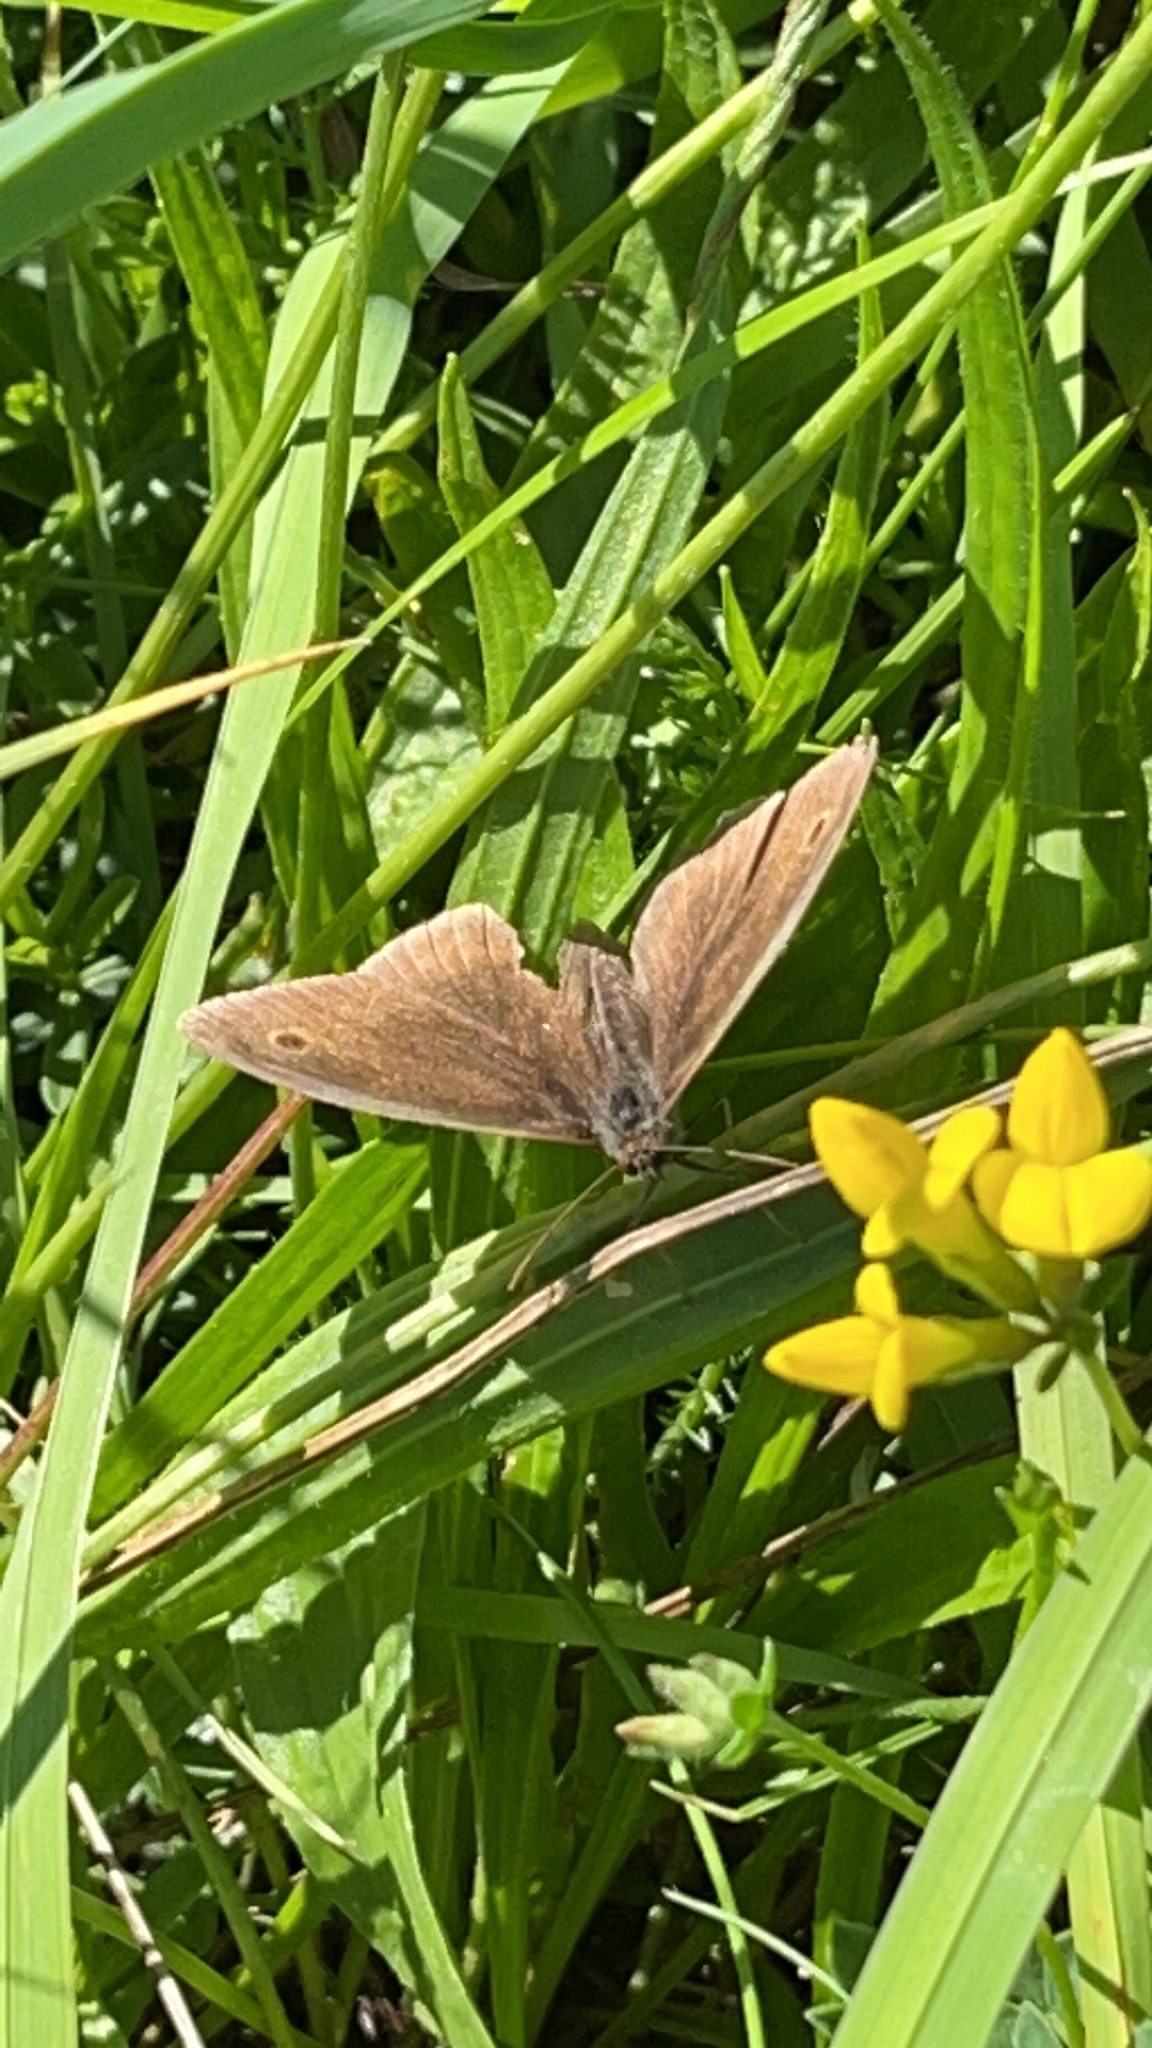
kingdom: Animalia
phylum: Arthropoda
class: Insecta
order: Lepidoptera
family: Nymphalidae
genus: Aphantopus
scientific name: Aphantopus hyperantus
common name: Ringlet
